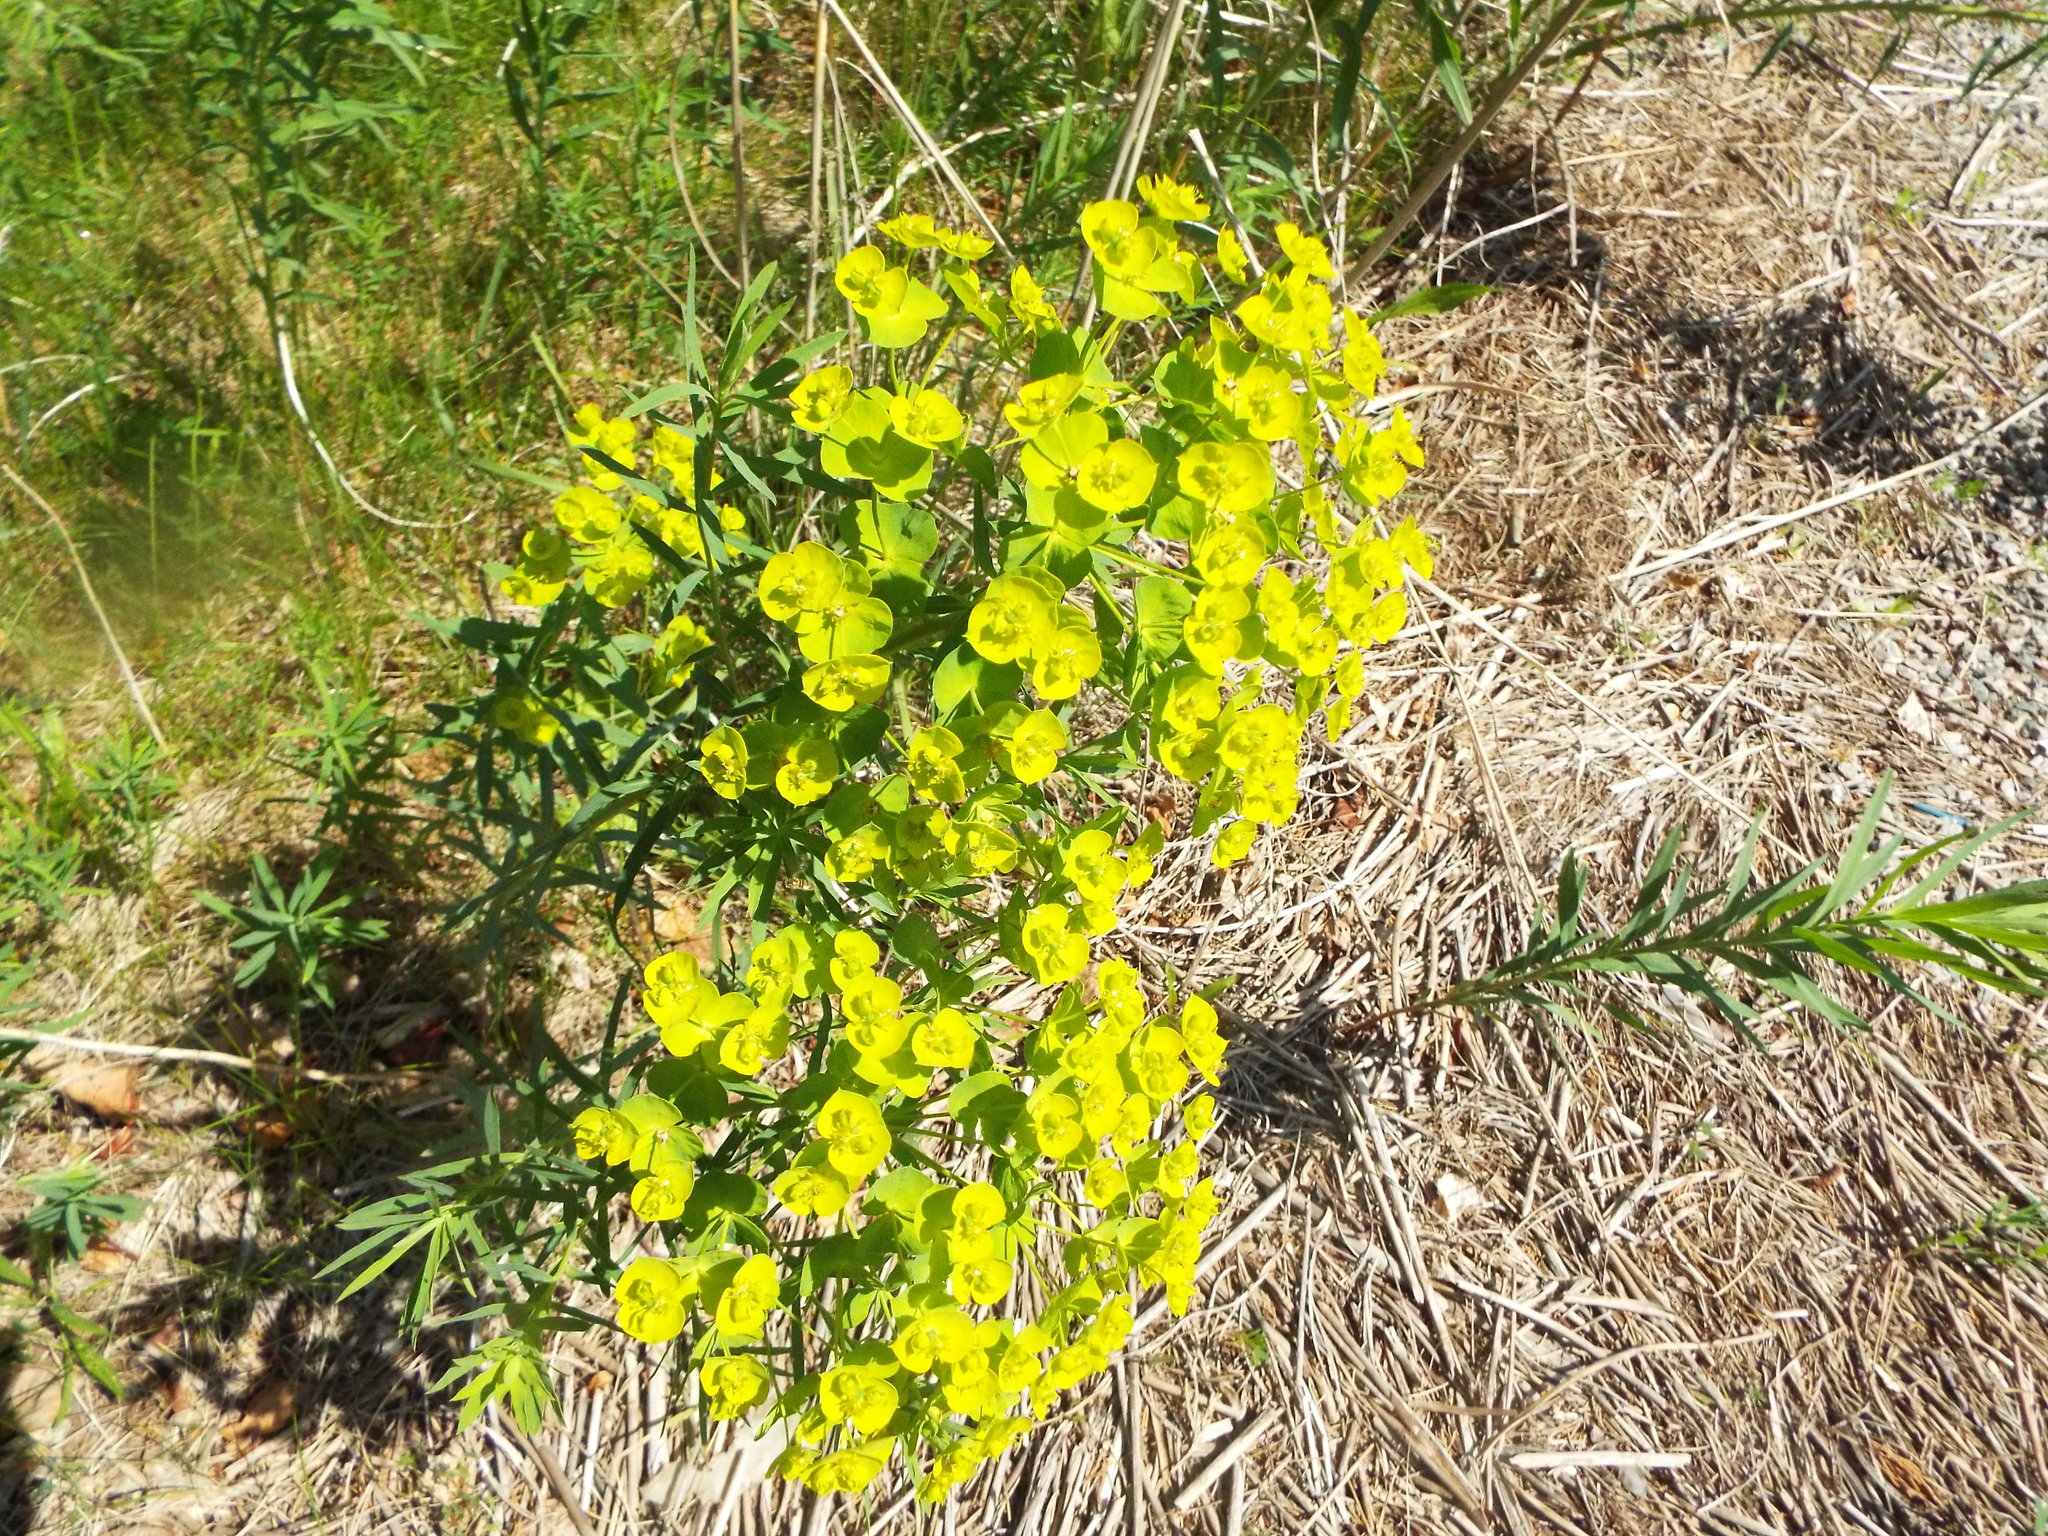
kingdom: Plantae
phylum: Tracheophyta
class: Magnoliopsida
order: Malpighiales
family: Euphorbiaceae
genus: Euphorbia
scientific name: Euphorbia virgata
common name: Leafy spurge
